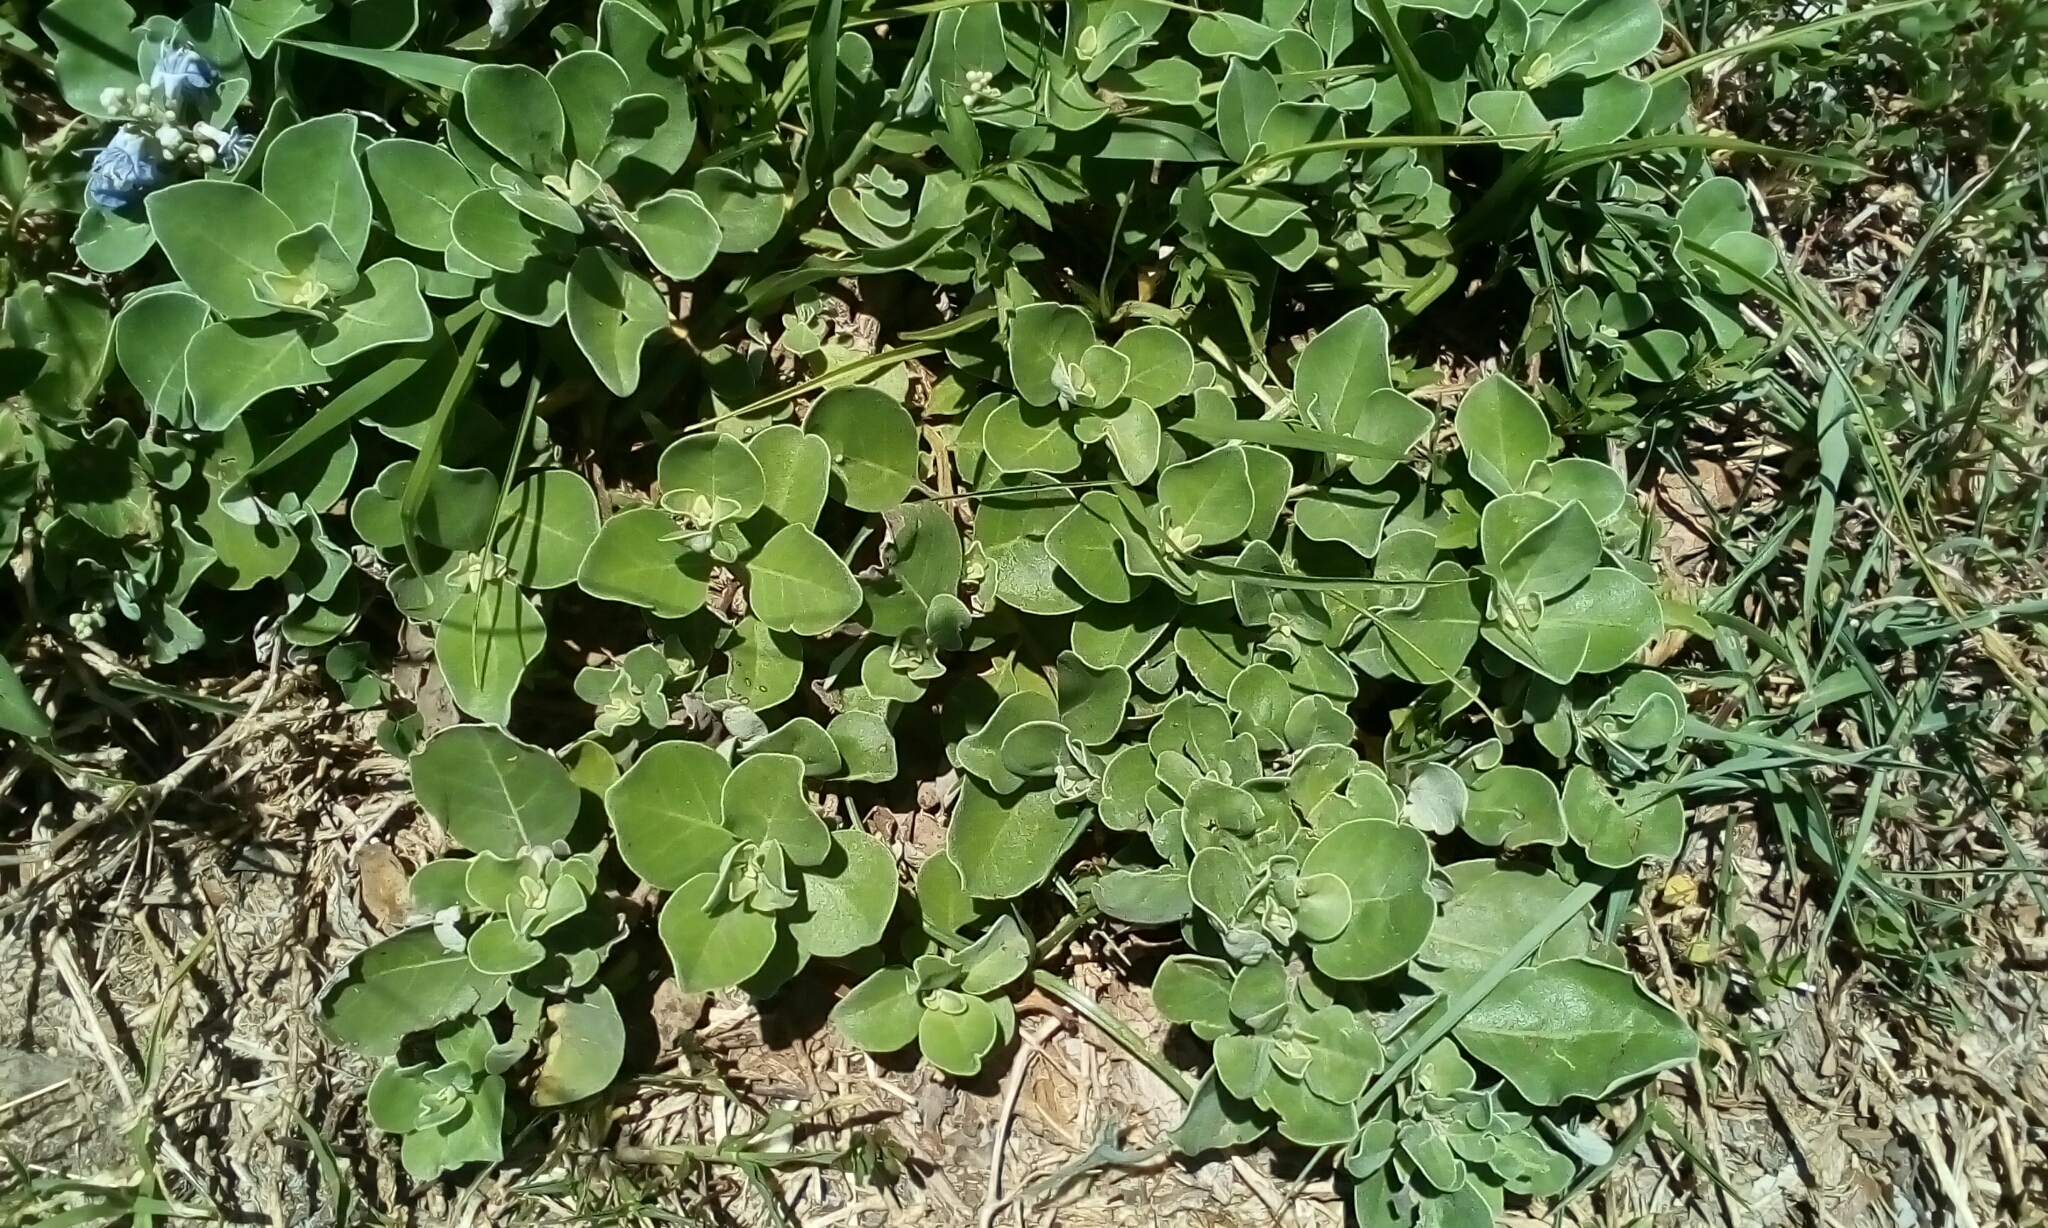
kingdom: Plantae
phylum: Tracheophyta
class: Magnoliopsida
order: Lamiales
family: Lamiaceae
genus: Vitex
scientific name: Vitex rotundifolia
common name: Beach vitex
